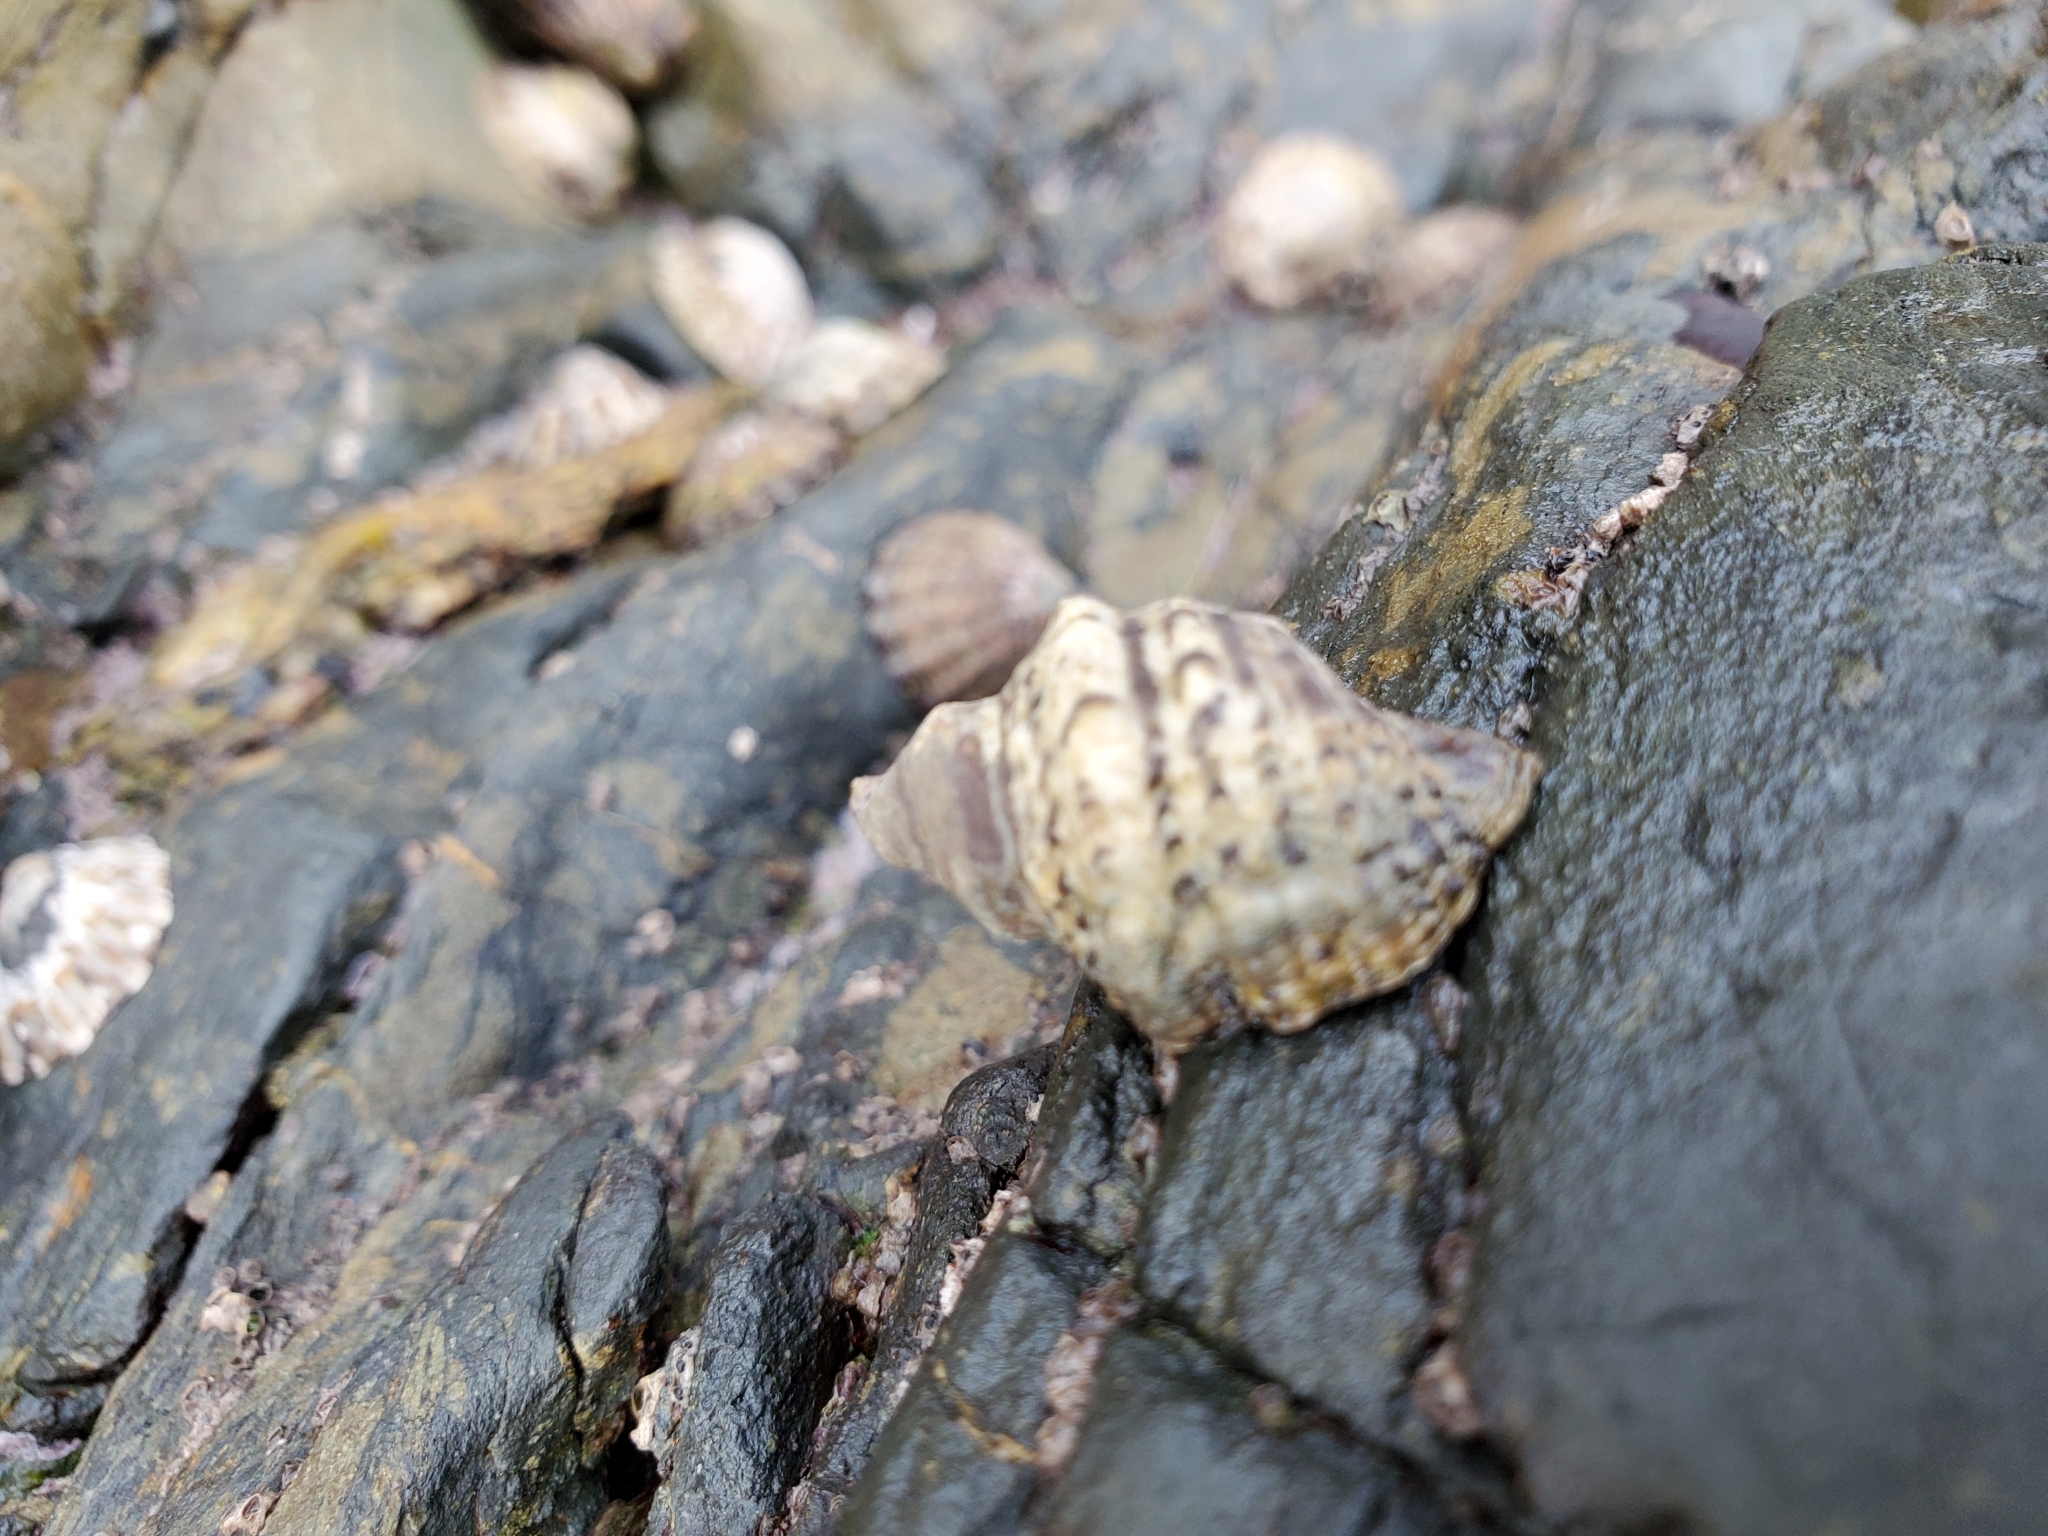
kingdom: Animalia
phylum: Mollusca
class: Gastropoda
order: Neogastropoda
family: Muricidae
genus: Haustrum
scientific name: Haustrum scobina
